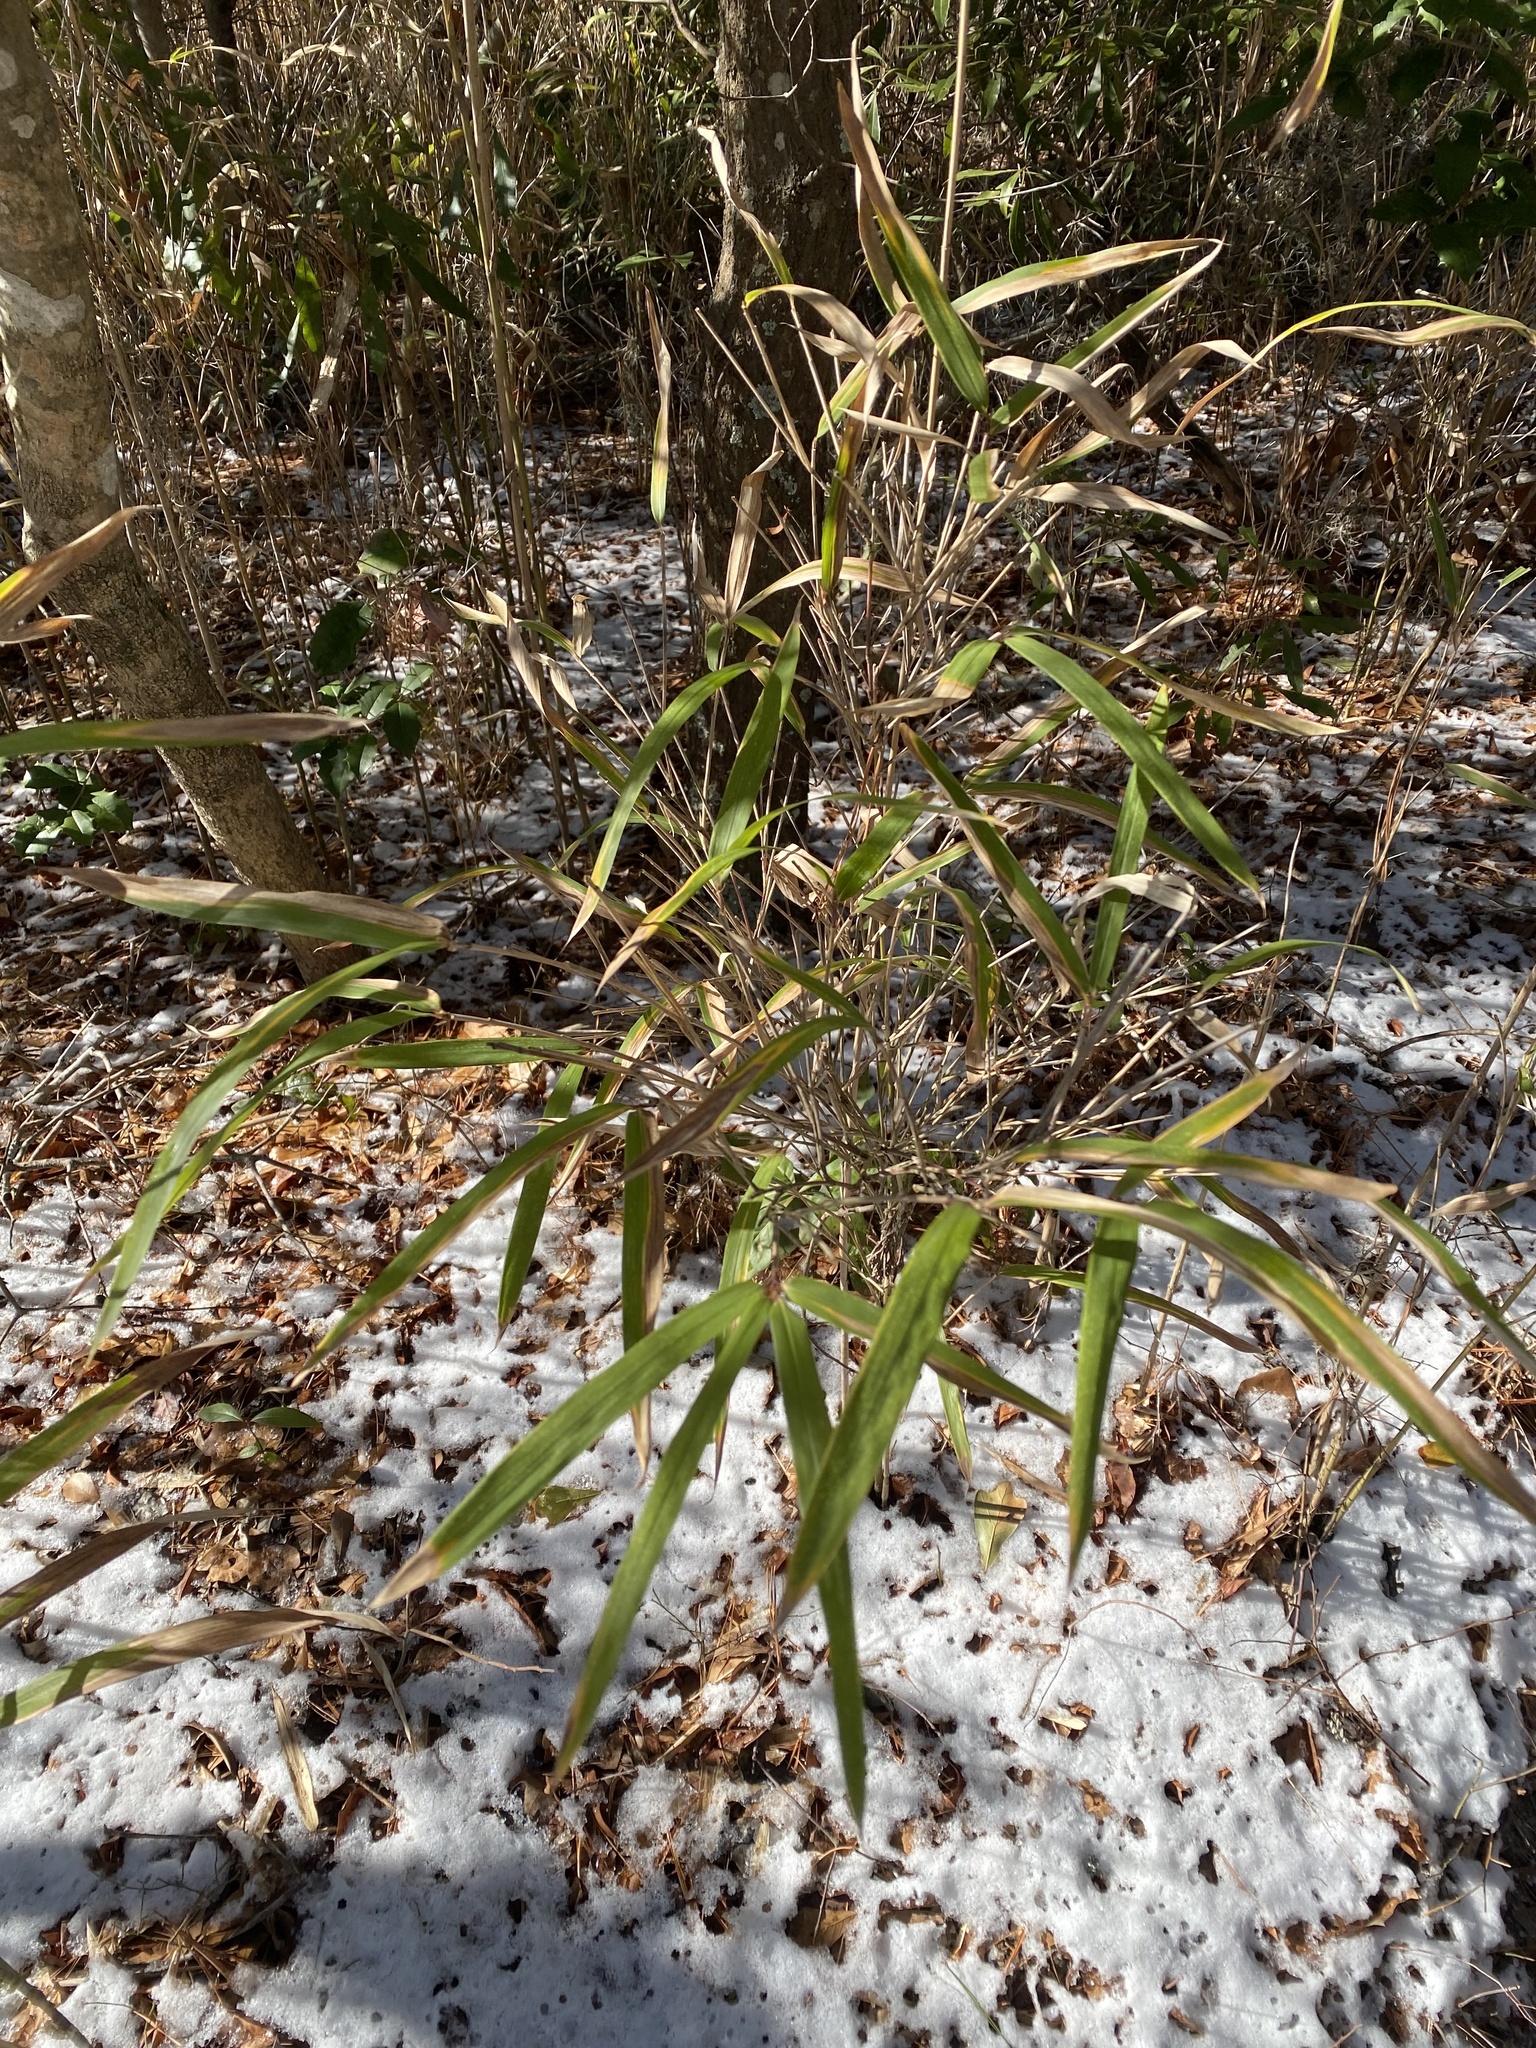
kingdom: Plantae
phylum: Tracheophyta
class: Liliopsida
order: Poales
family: Poaceae
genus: Arundinaria
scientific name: Arundinaria tecta
